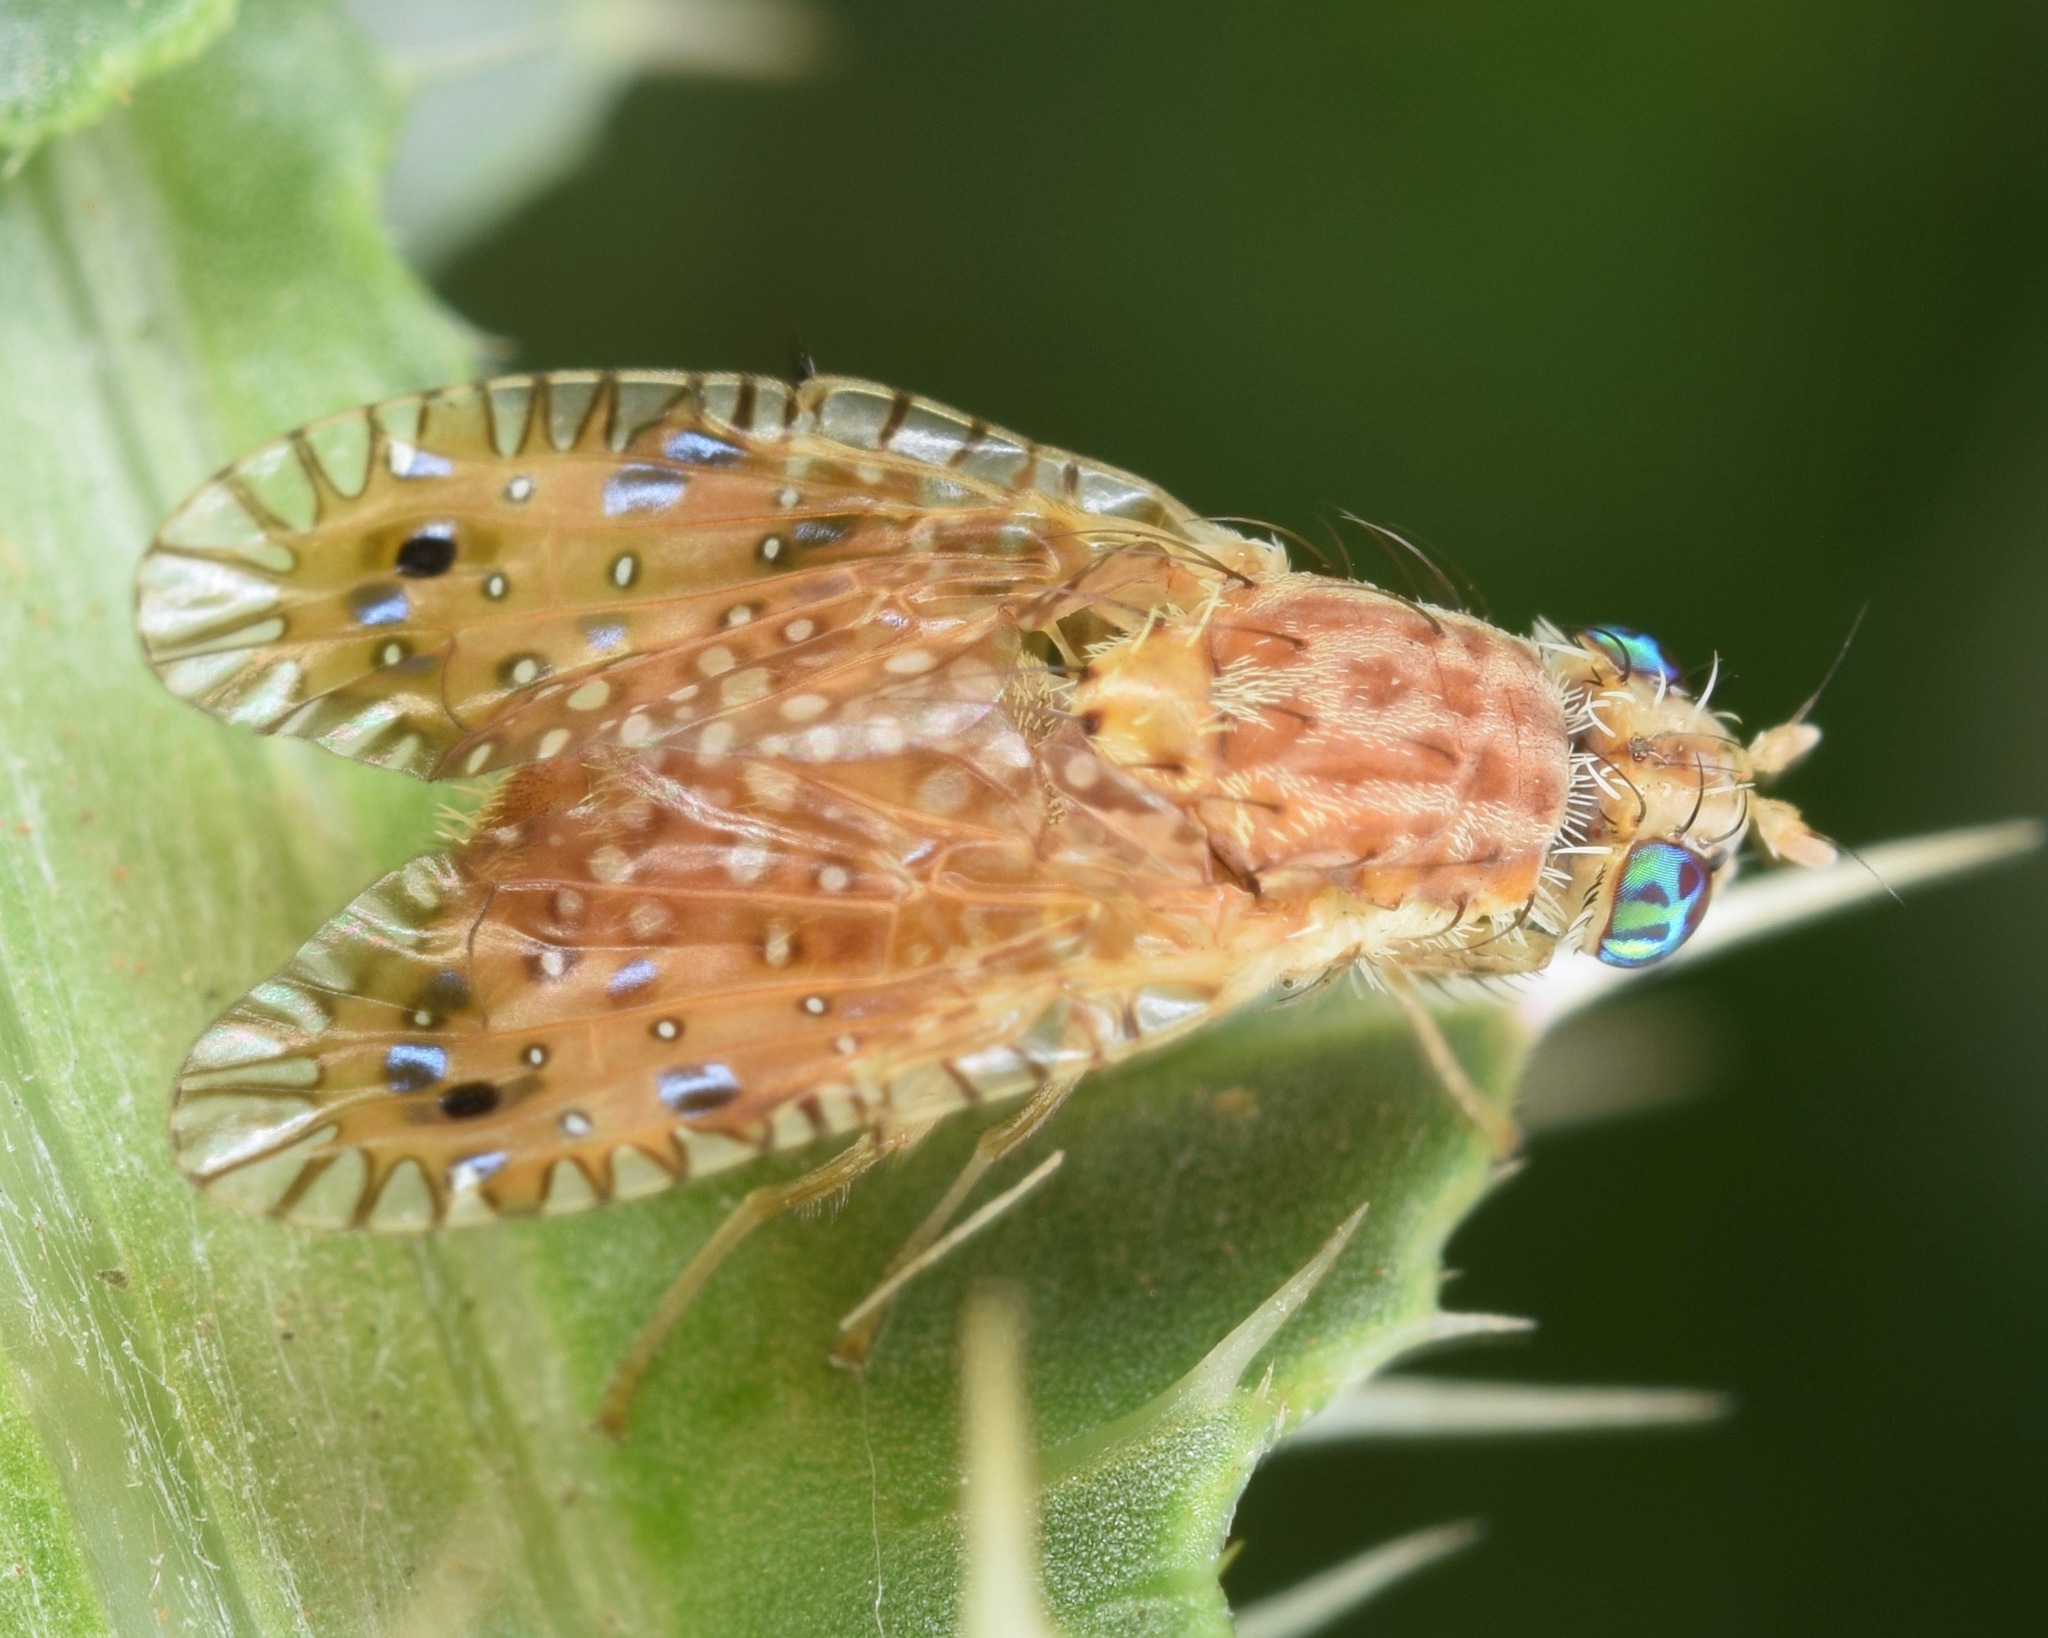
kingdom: Animalia
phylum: Arthropoda
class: Insecta
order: Diptera
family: Tephritidae
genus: Paracantha
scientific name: Paracantha culta
